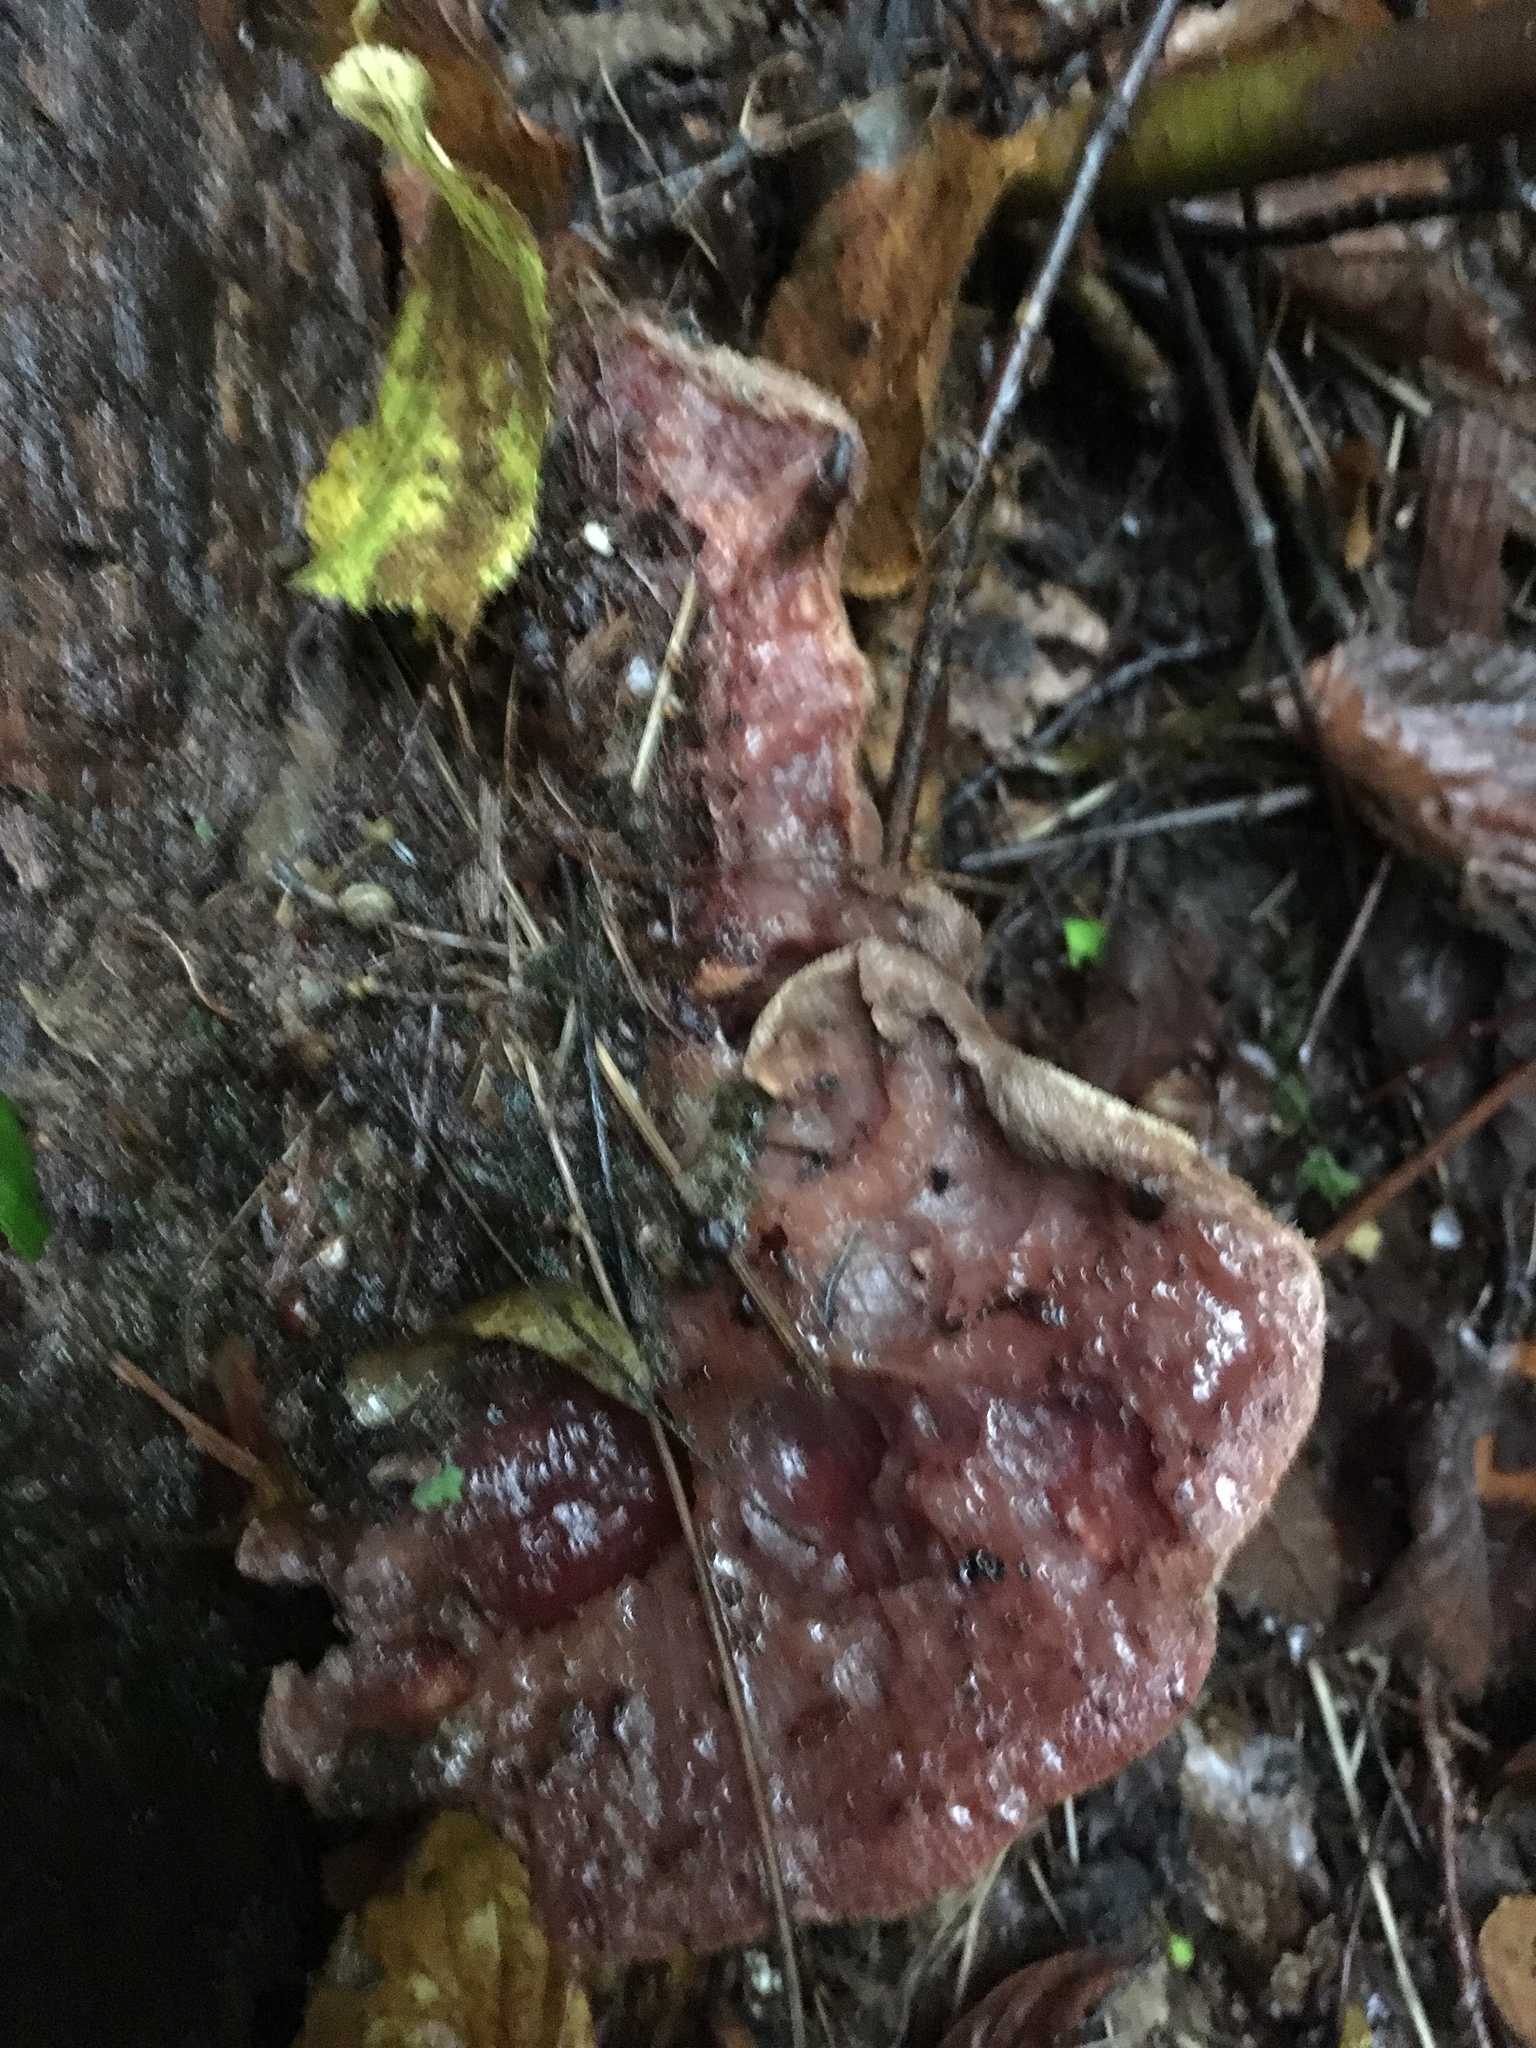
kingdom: Fungi
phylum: Basidiomycota
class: Agaricomycetes
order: Agaricales
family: Fistulinaceae
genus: Fistulina
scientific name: Fistulina hepatica
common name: Beef-steak fungus
